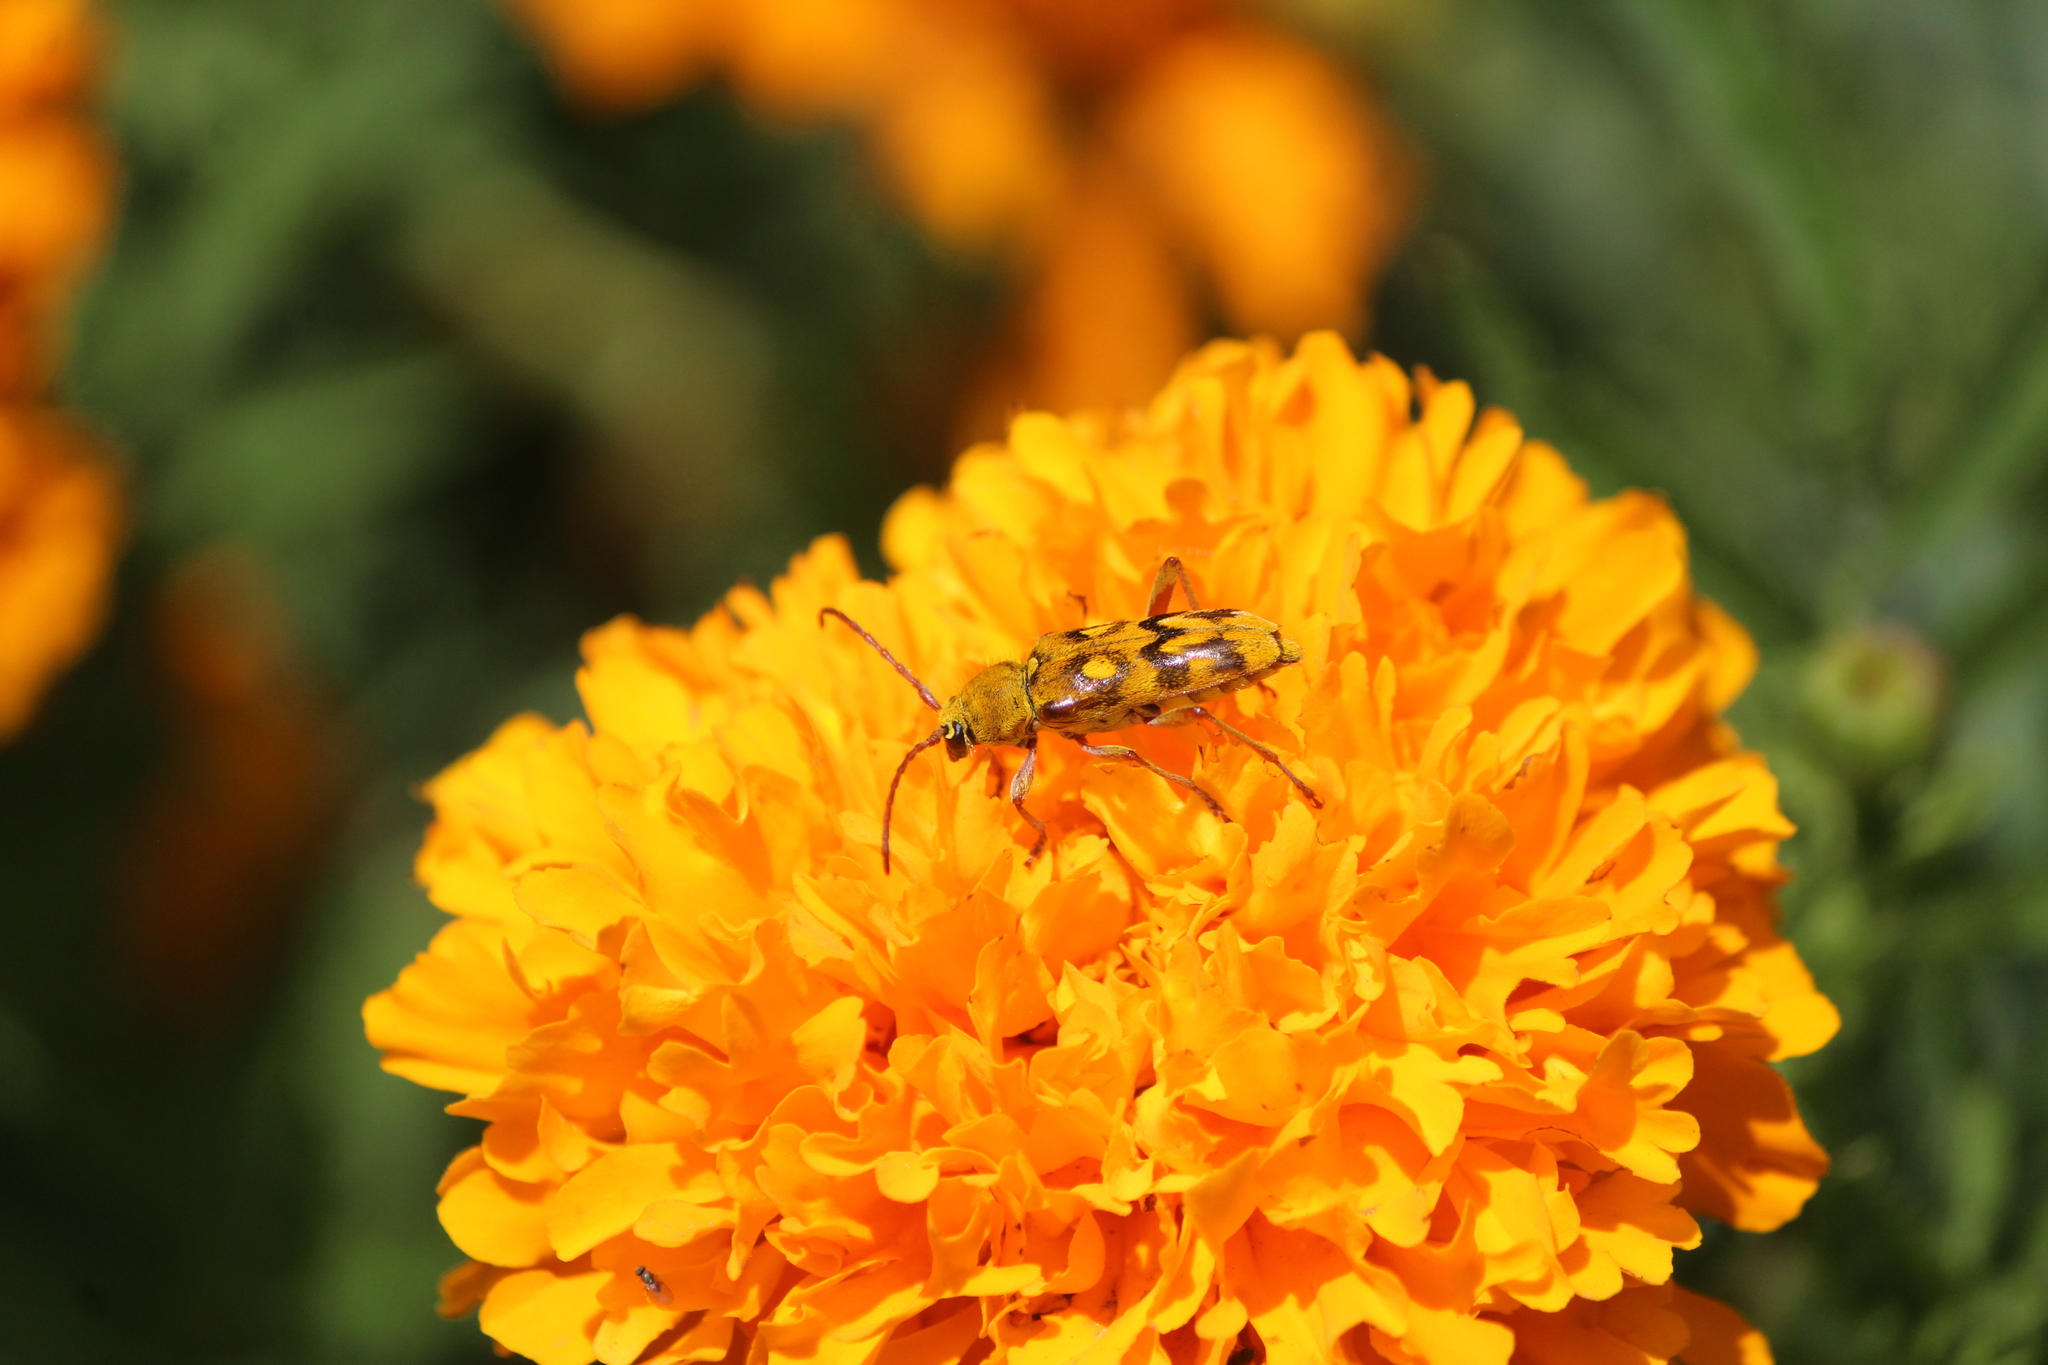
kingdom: Animalia
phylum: Arthropoda
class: Insecta
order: Coleoptera
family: Cerambycidae
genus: Ochraethes
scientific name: Ochraethes sommeri
